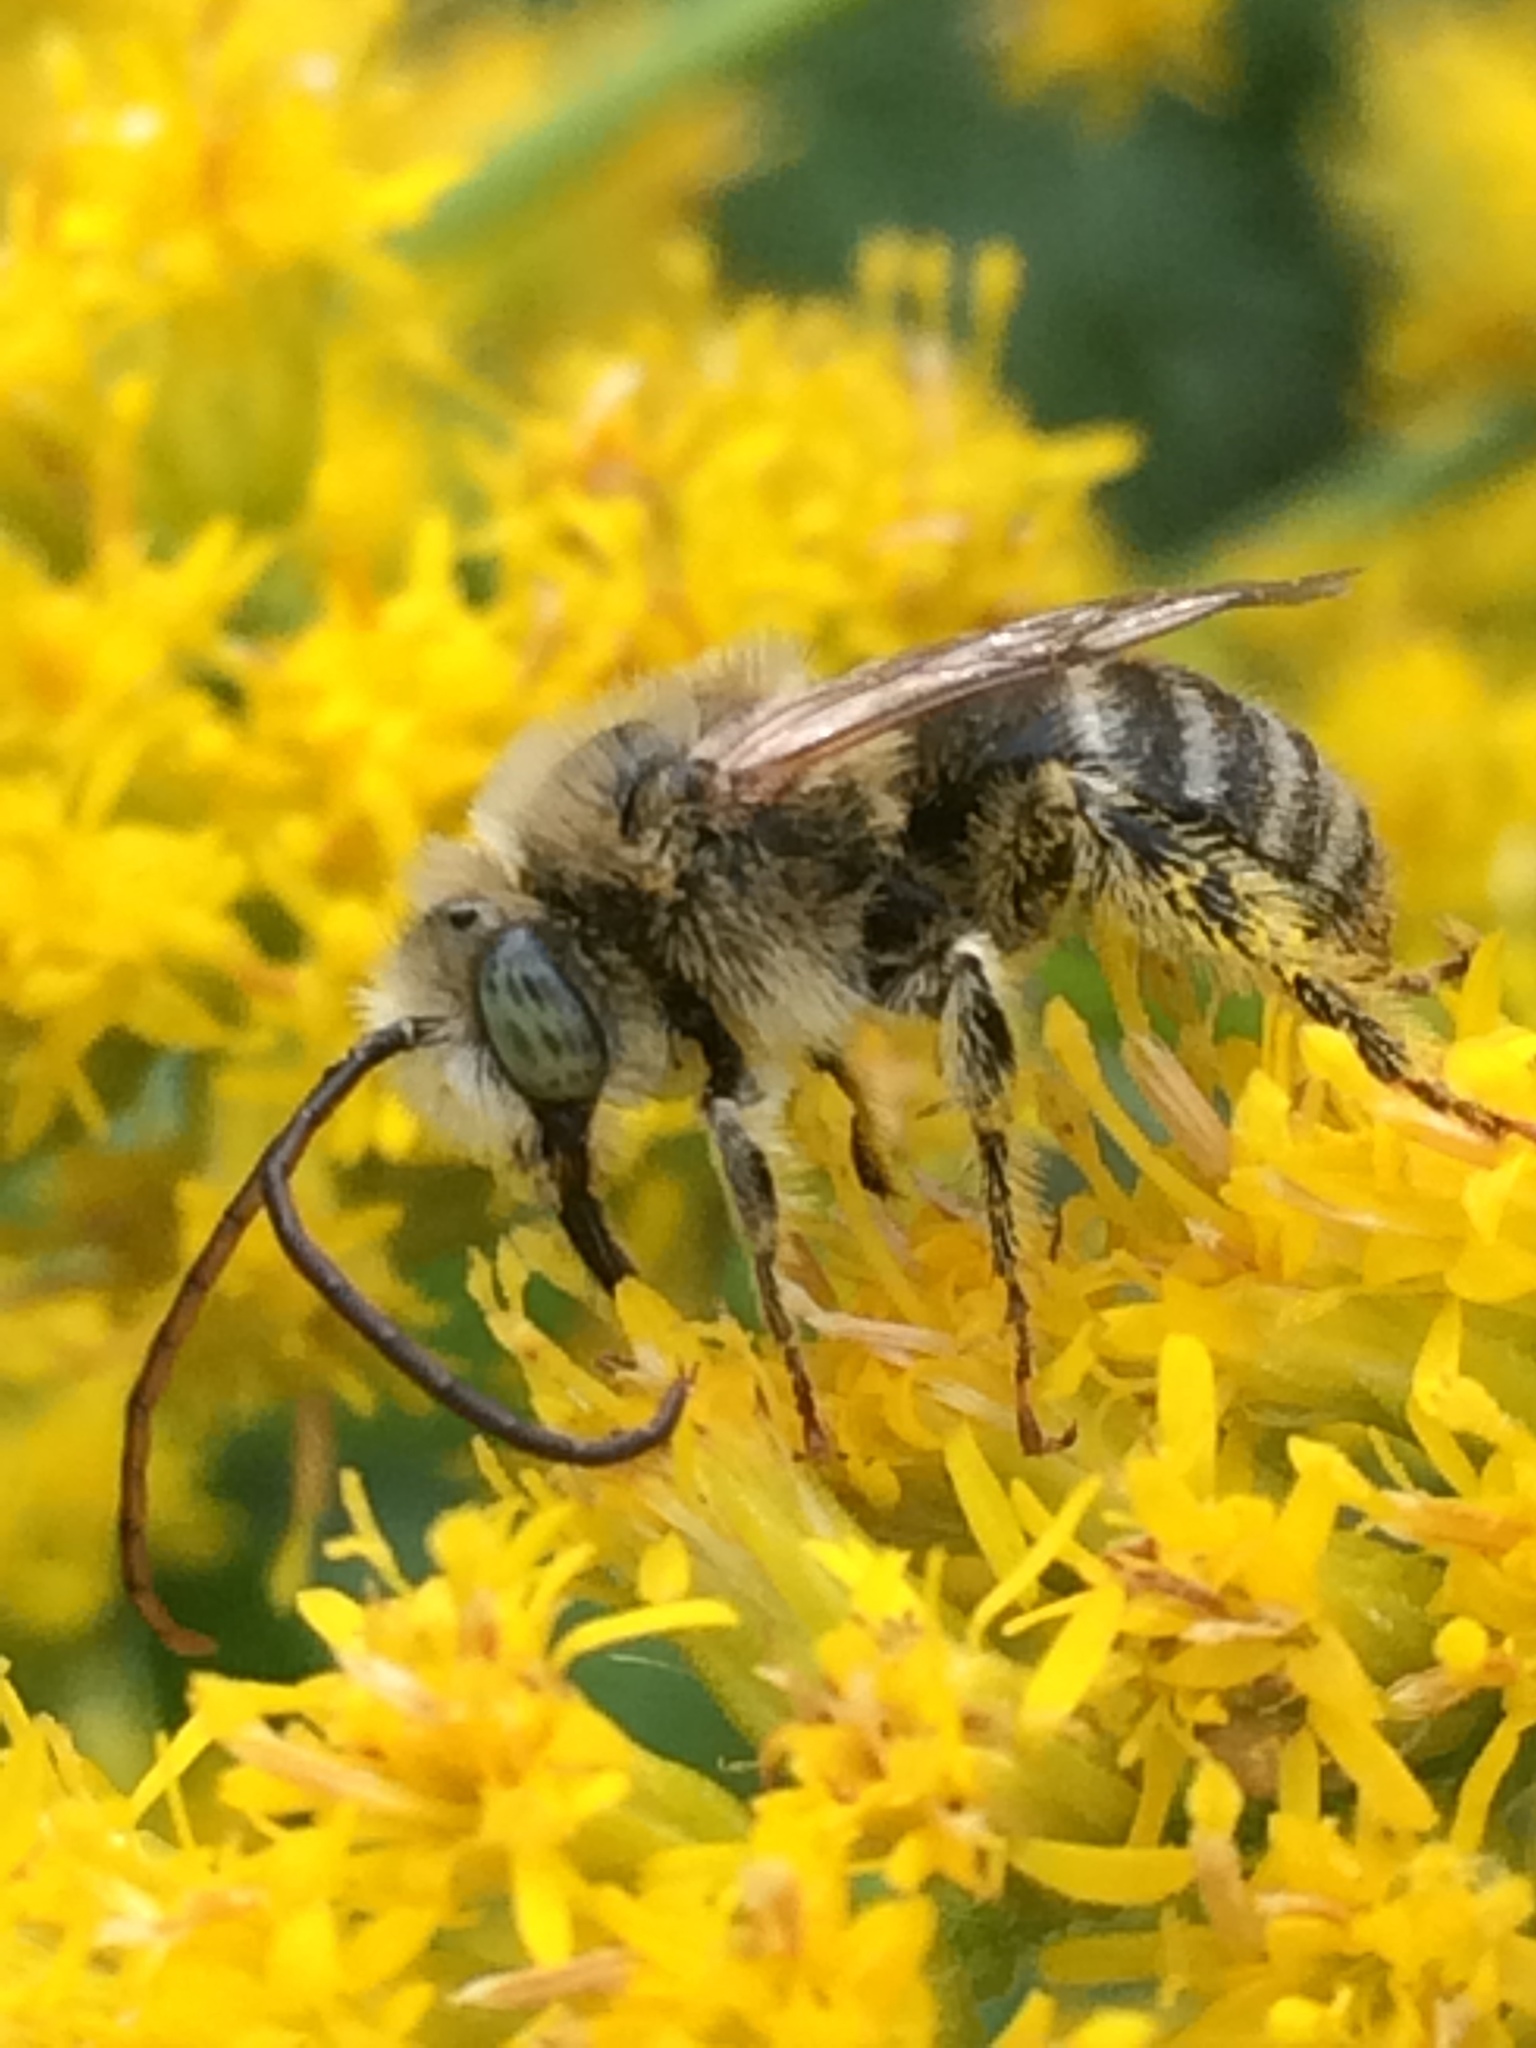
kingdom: Animalia
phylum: Arthropoda
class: Insecta
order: Hymenoptera
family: Apidae
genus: Melissodes
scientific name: Melissodes druriellus
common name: Drury's long-horned bee
